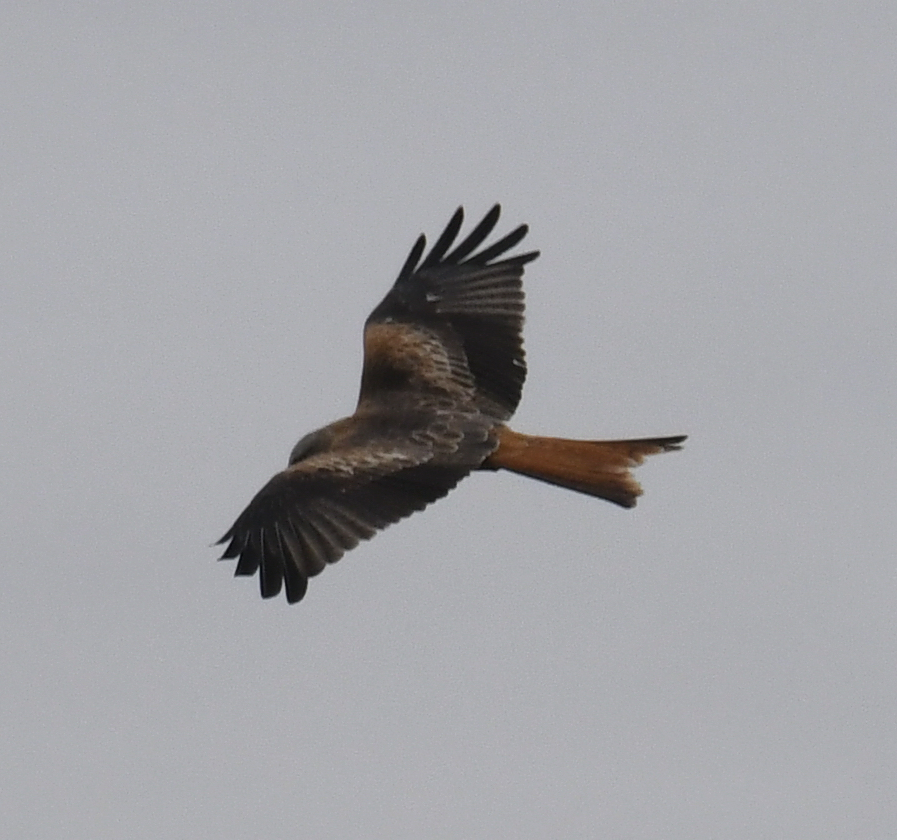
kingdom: Animalia
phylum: Chordata
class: Aves
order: Accipitriformes
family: Accipitridae
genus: Milvus
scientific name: Milvus milvus
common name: Red kite
